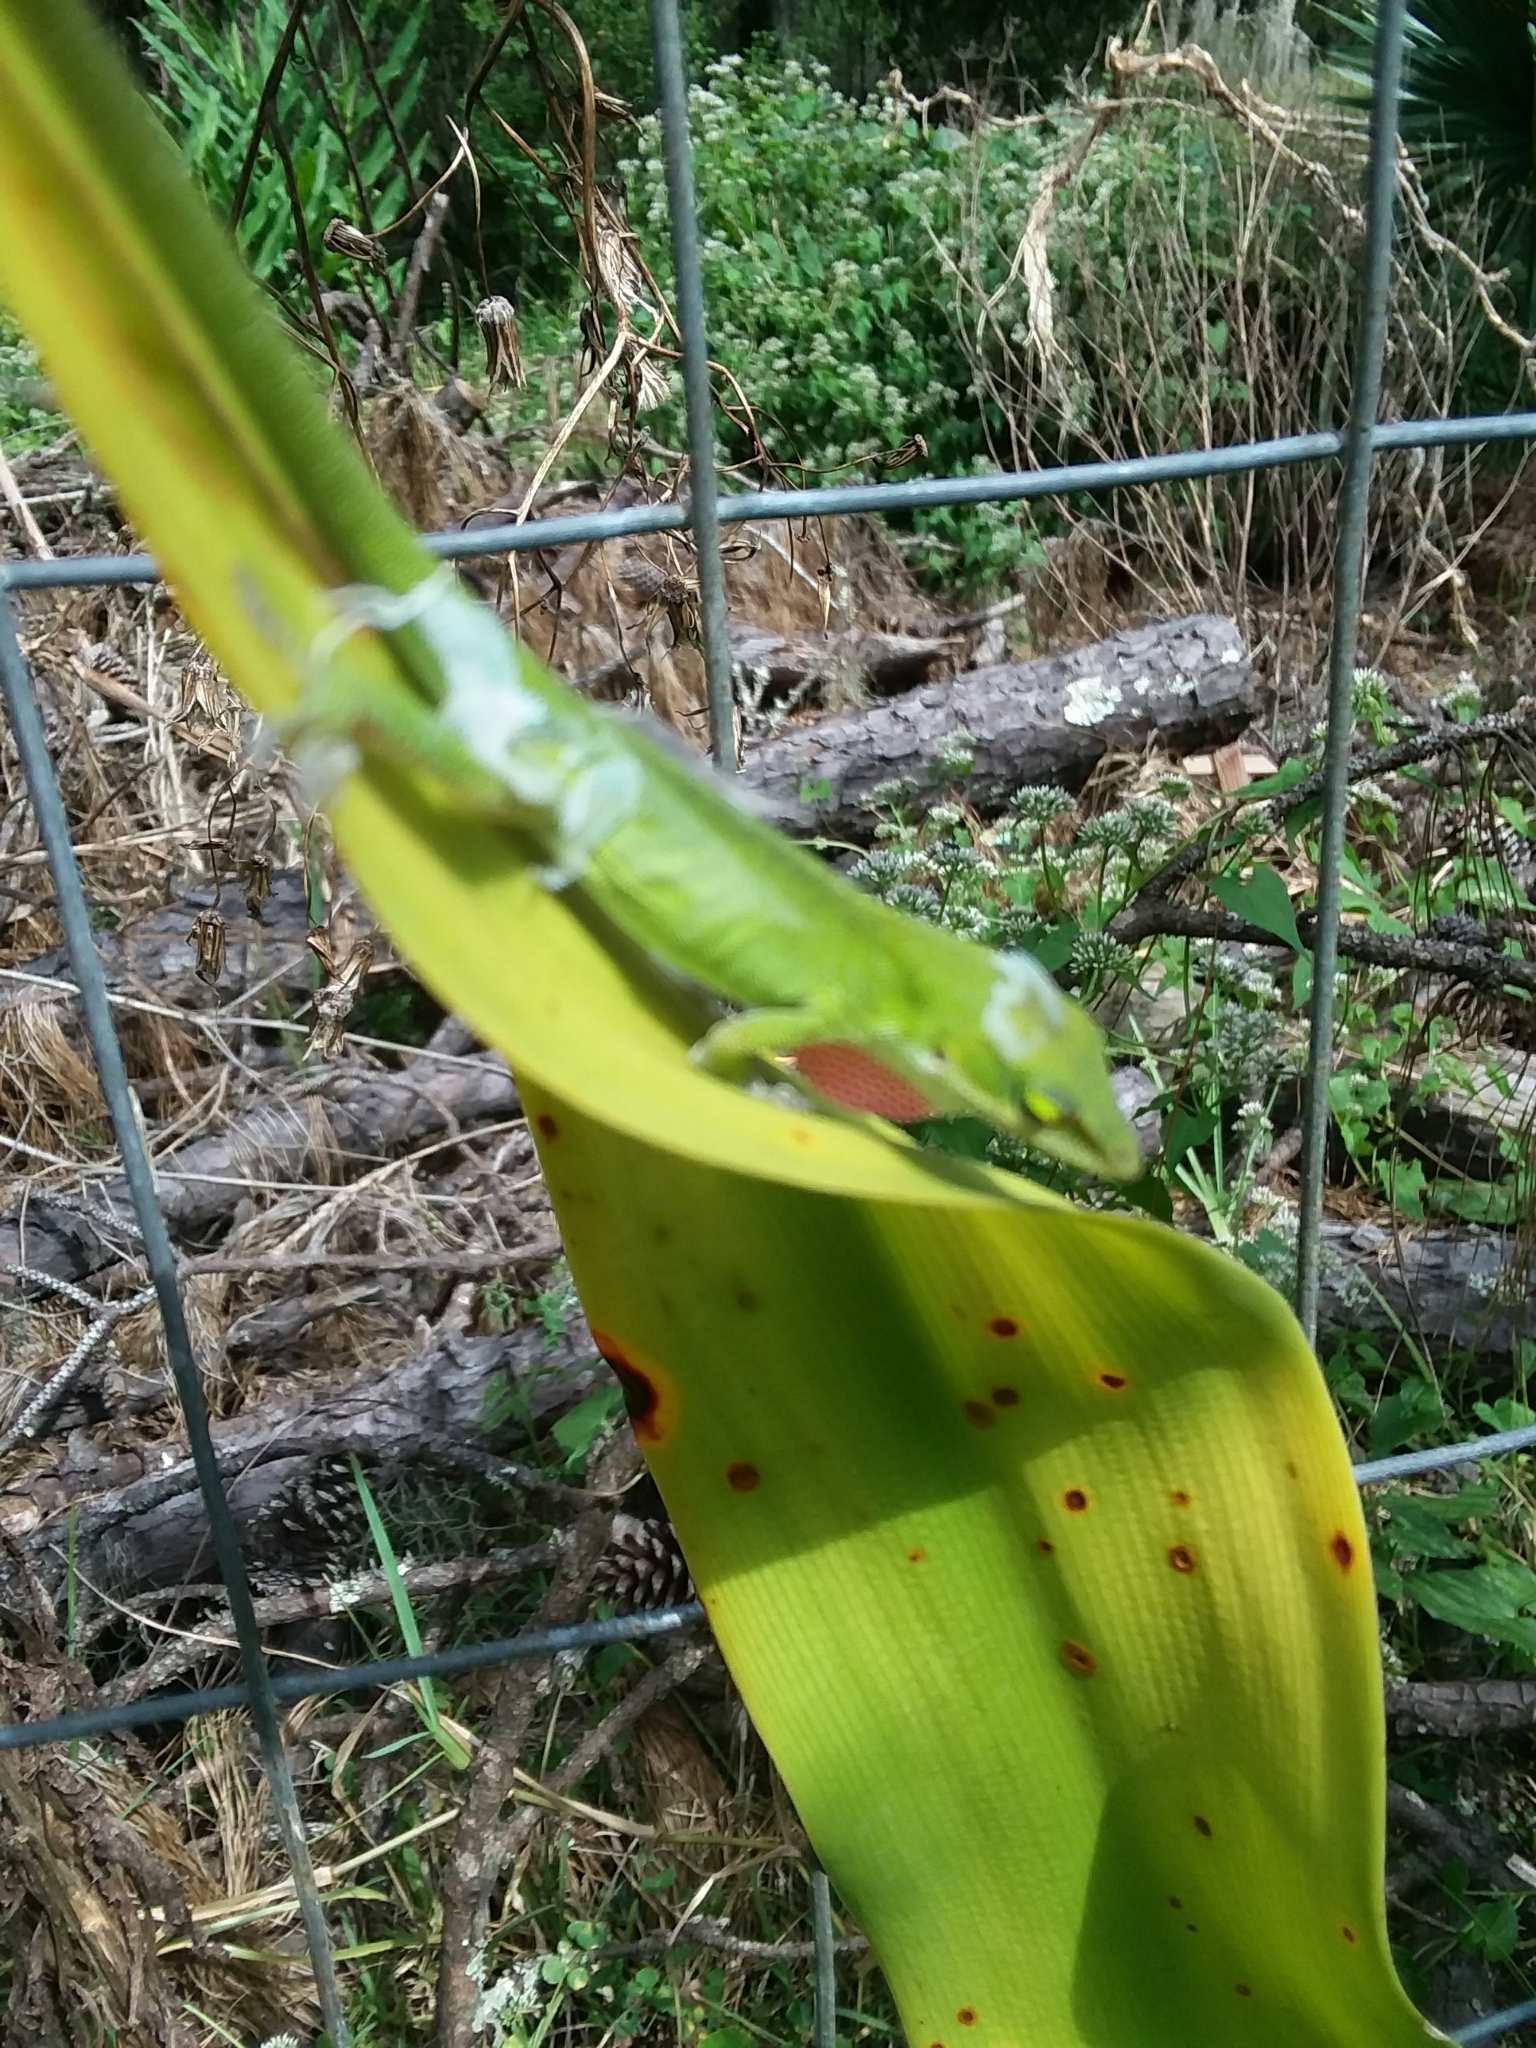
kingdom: Animalia
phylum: Chordata
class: Squamata
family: Dactyloidae
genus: Anolis
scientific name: Anolis carolinensis
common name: Green anole
